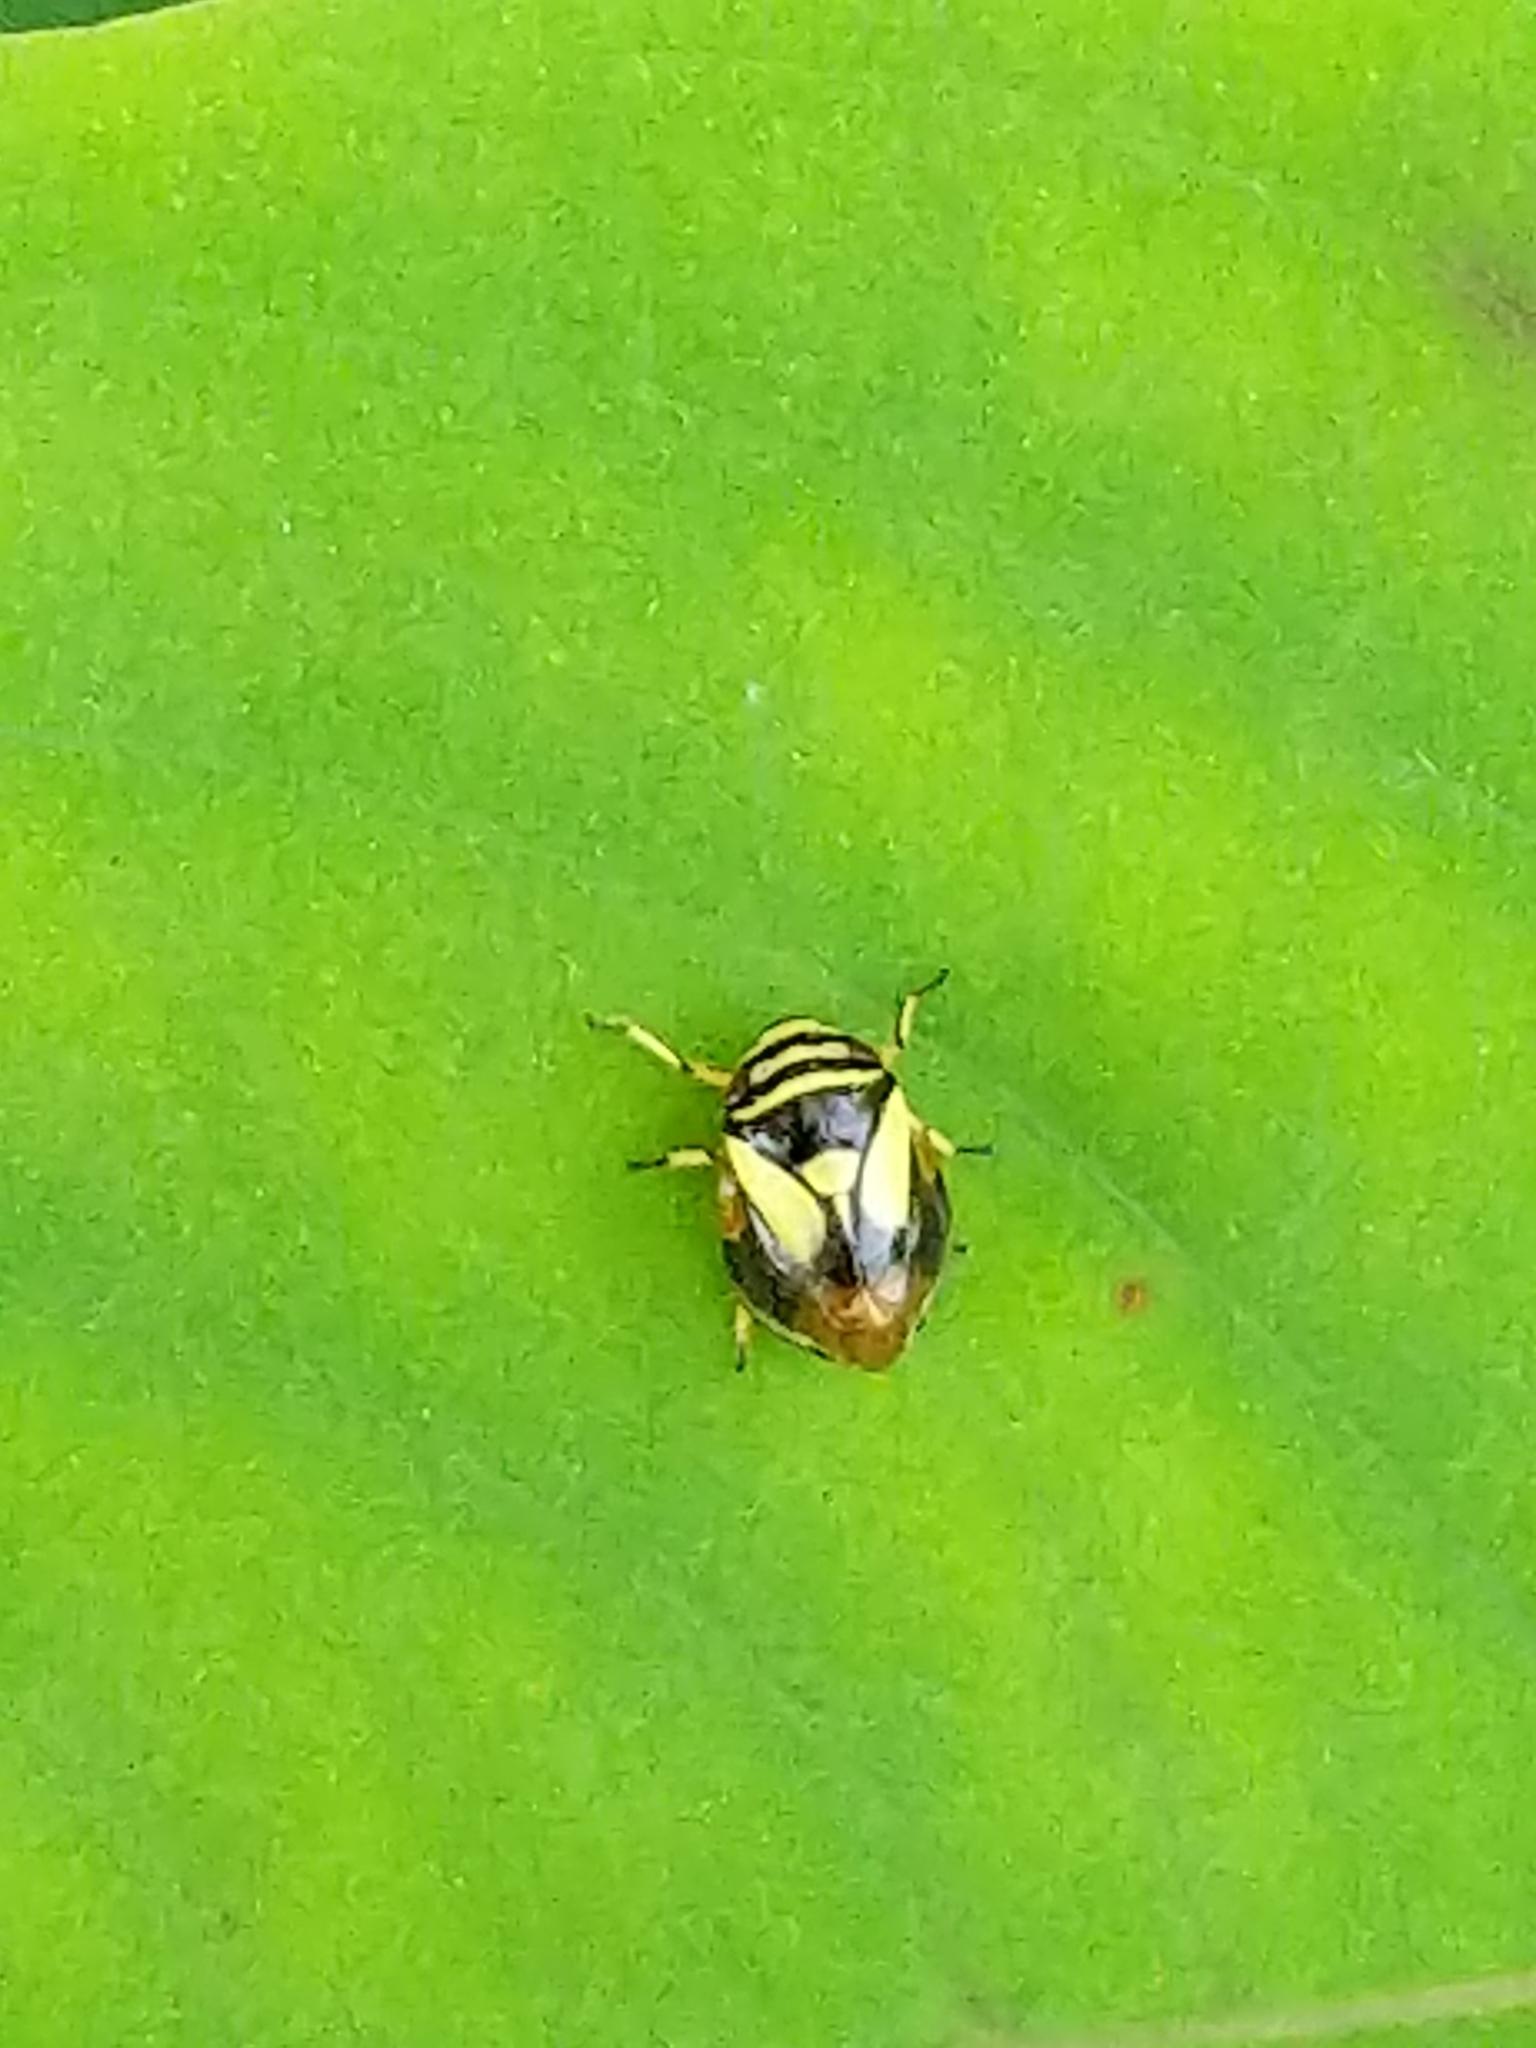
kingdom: Animalia
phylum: Arthropoda
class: Insecta
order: Hemiptera
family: Clastopteridae
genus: Clastoptera
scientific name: Clastoptera proteus
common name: Dogwood spittlebug
